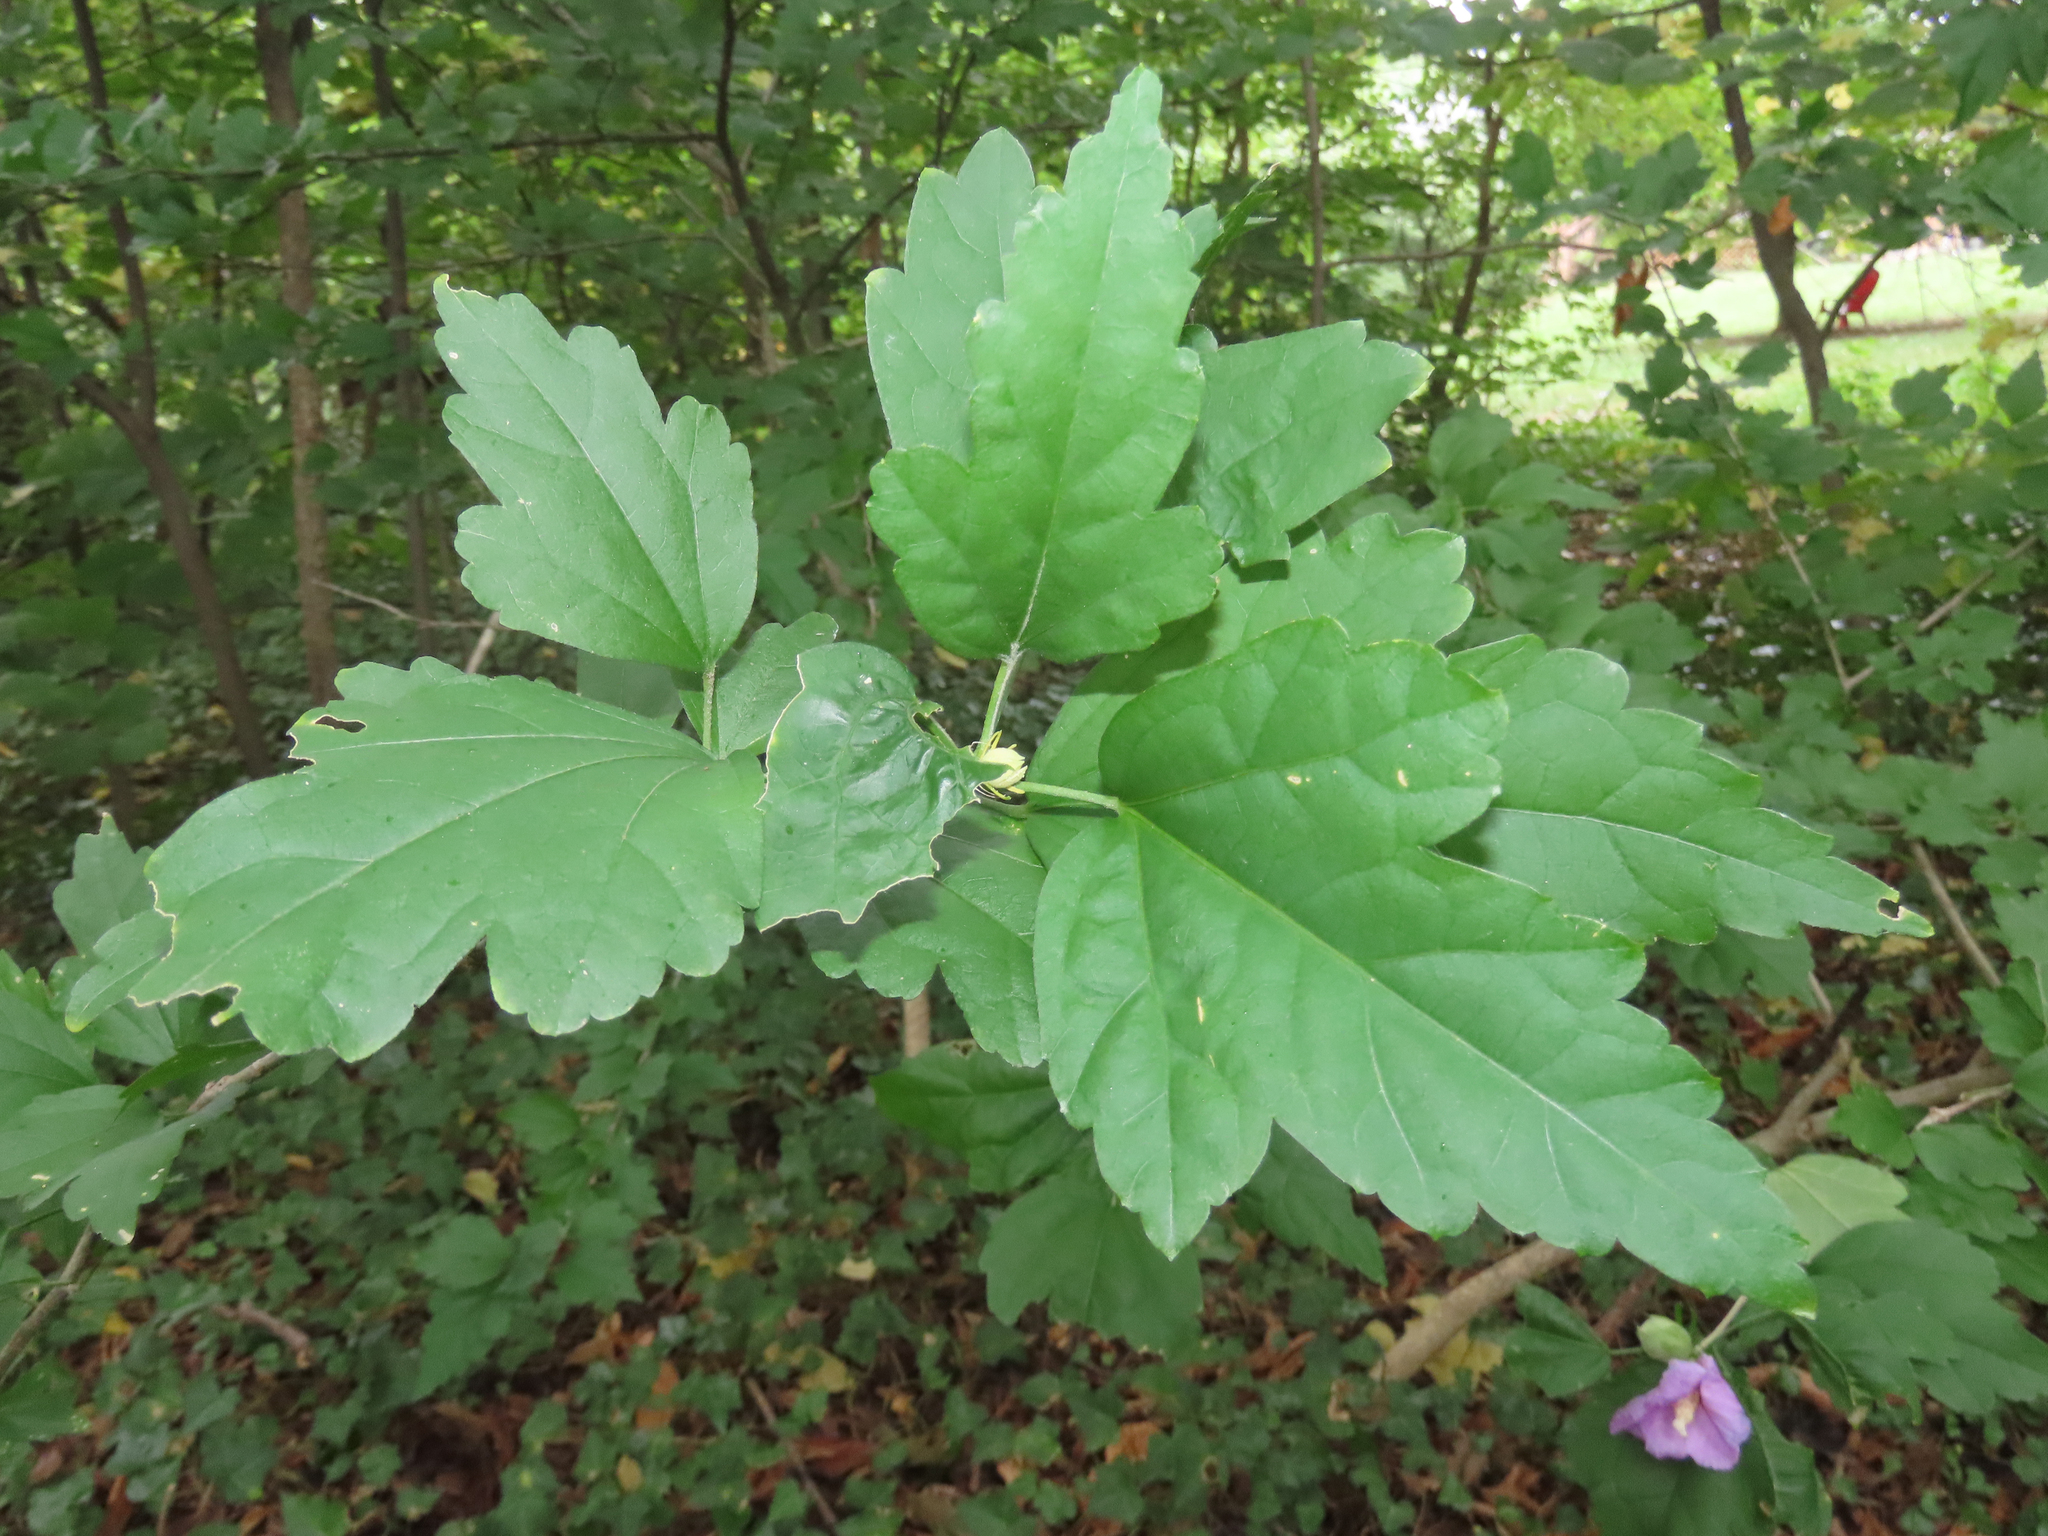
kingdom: Plantae
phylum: Tracheophyta
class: Magnoliopsida
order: Malvales
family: Malvaceae
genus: Hibiscus
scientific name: Hibiscus syriacus
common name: Syrian ketmia
